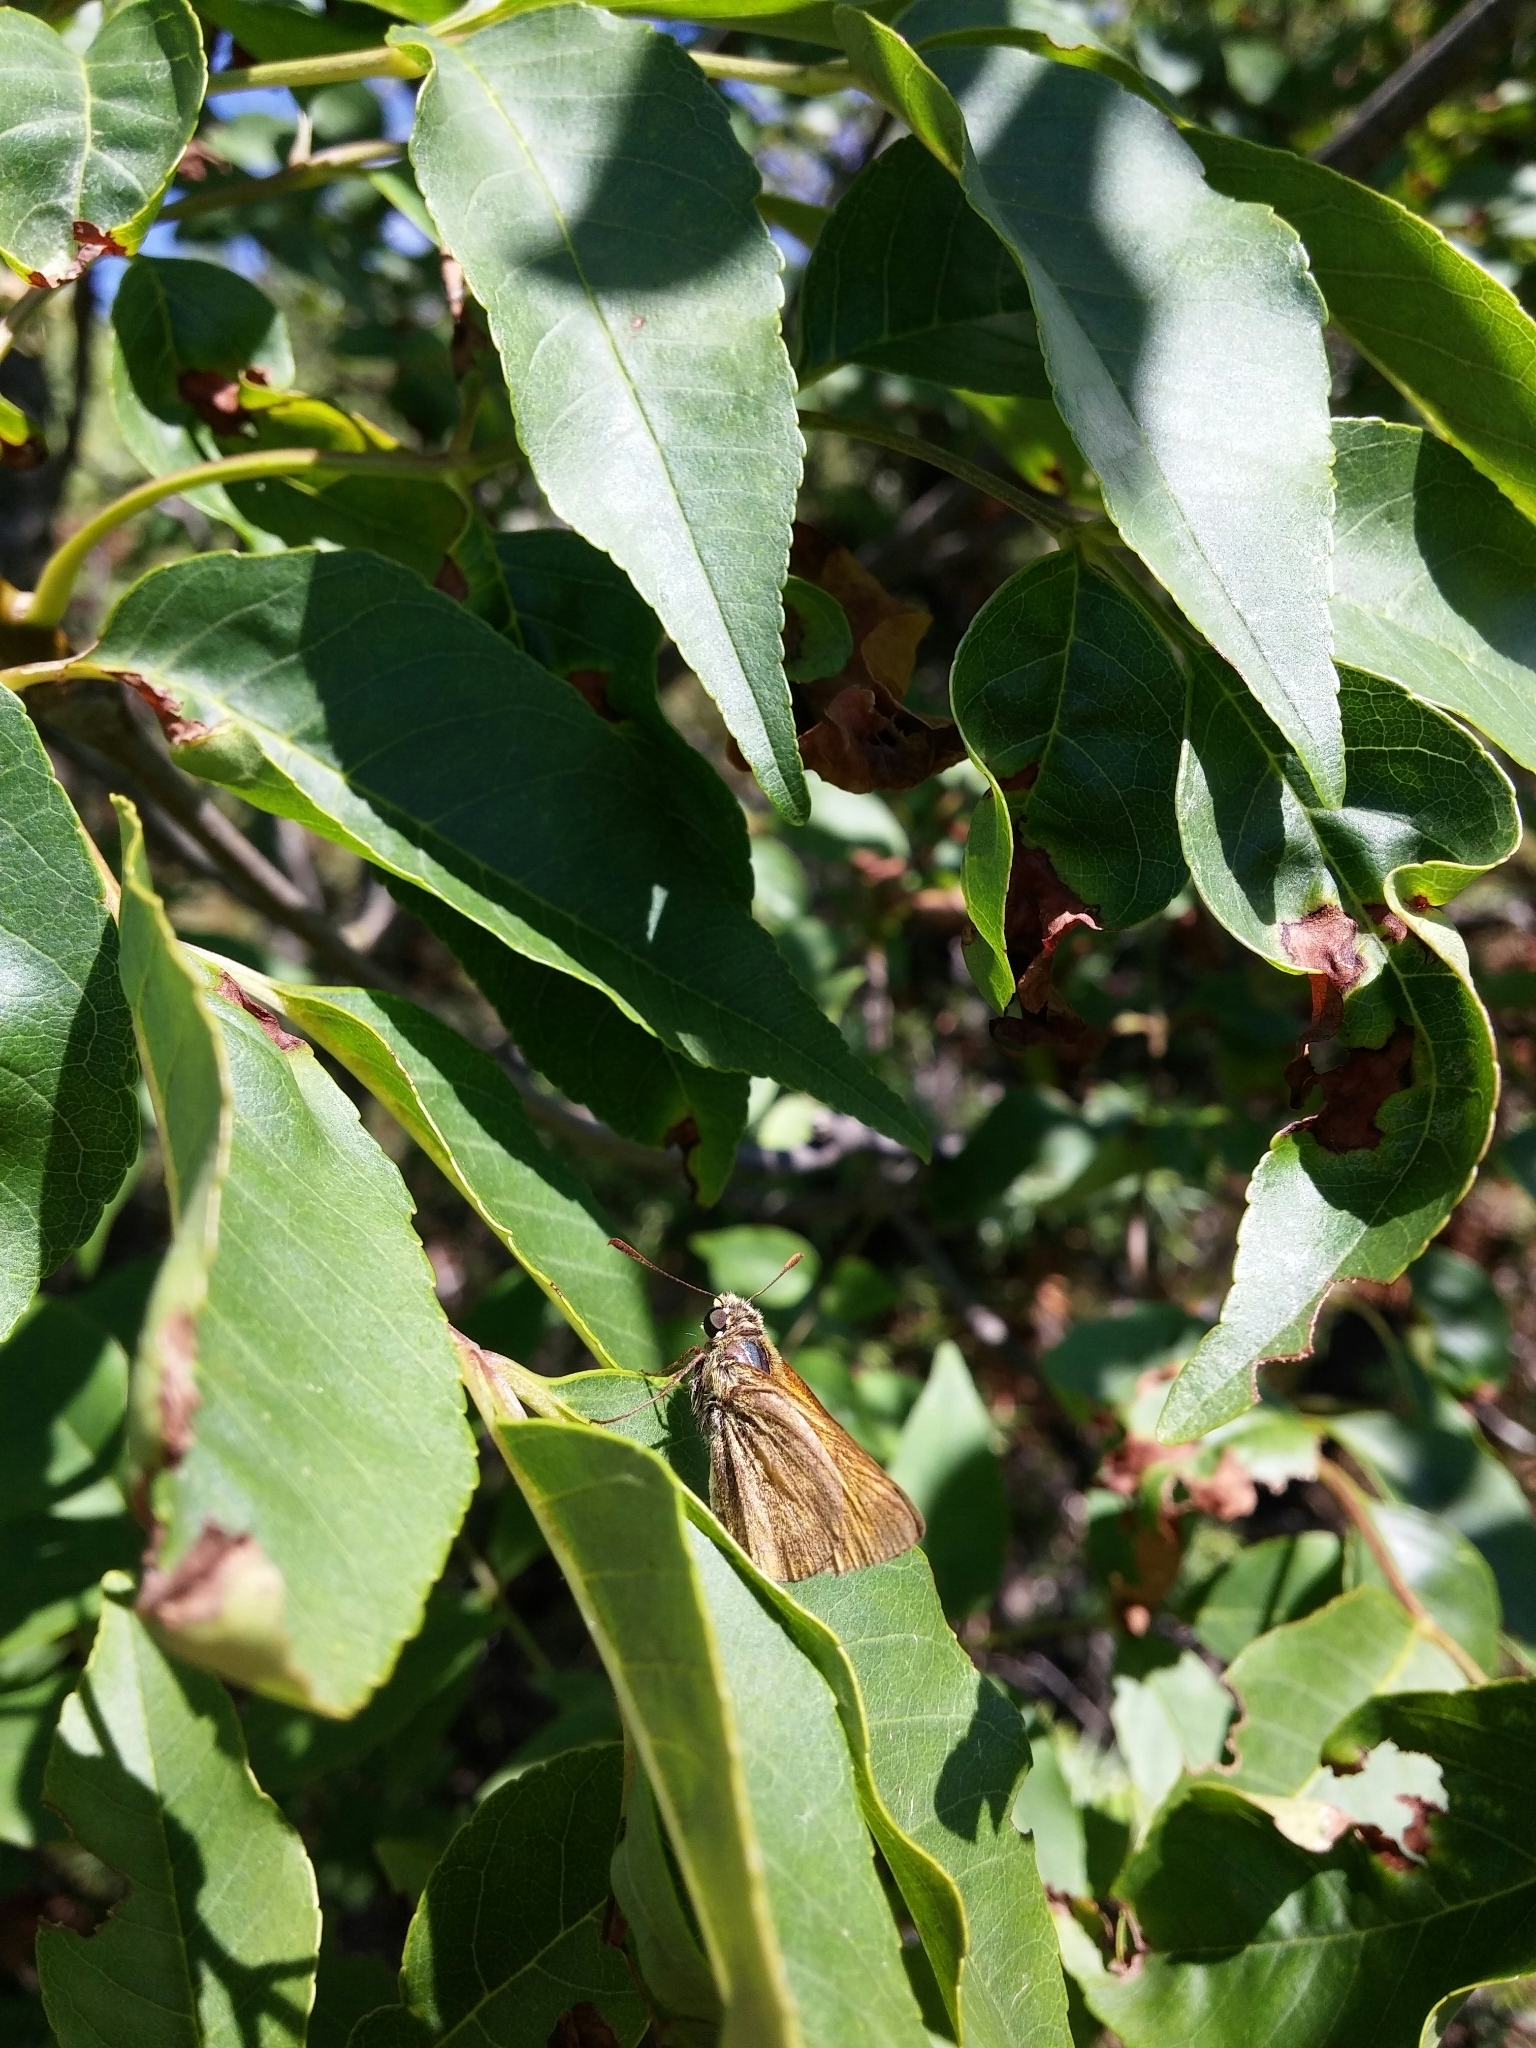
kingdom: Animalia
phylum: Arthropoda
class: Insecta
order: Lepidoptera
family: Hesperiidae
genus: Ochlodes
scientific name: Ochlodes venata
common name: Large skipper
